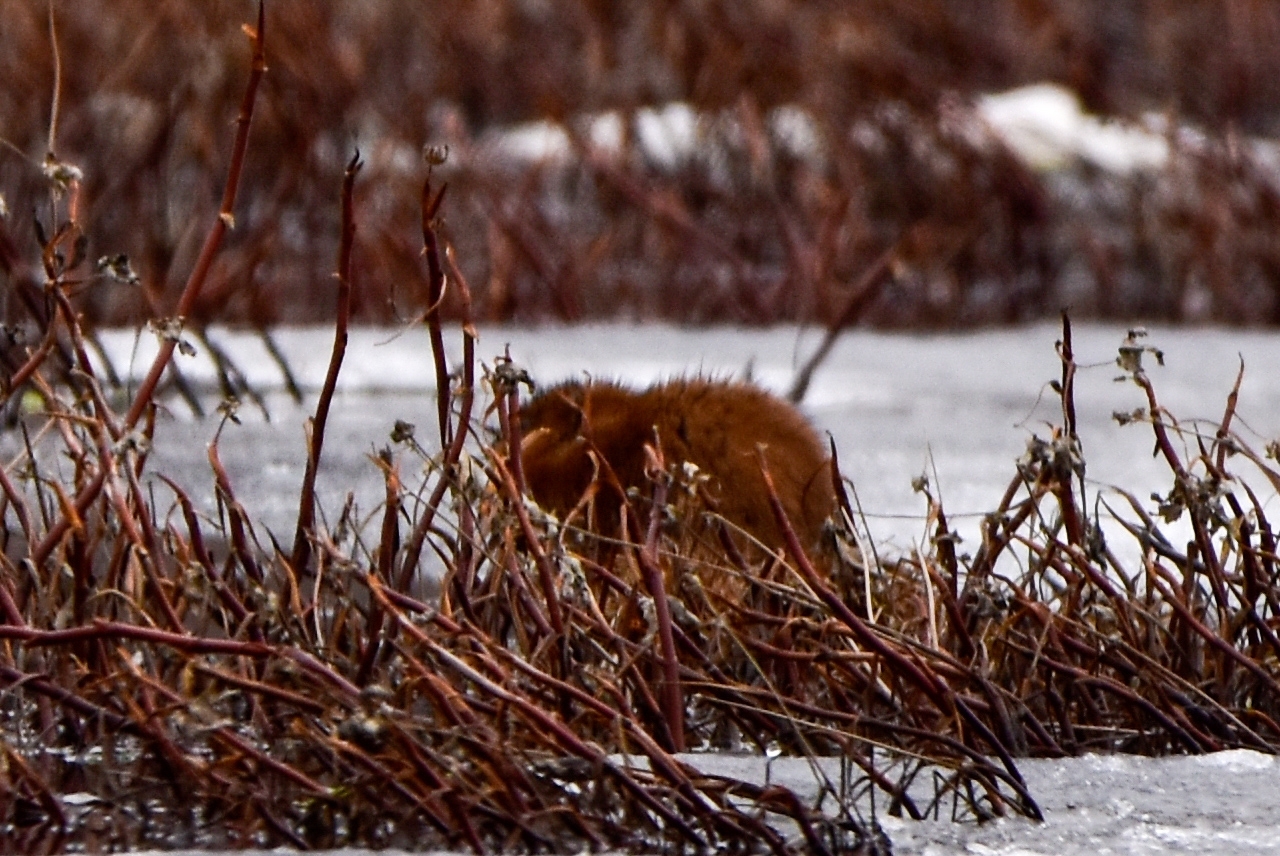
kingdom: Animalia
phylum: Chordata
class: Mammalia
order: Rodentia
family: Cricetidae
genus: Ondatra
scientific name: Ondatra zibethicus
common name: Muskrat
